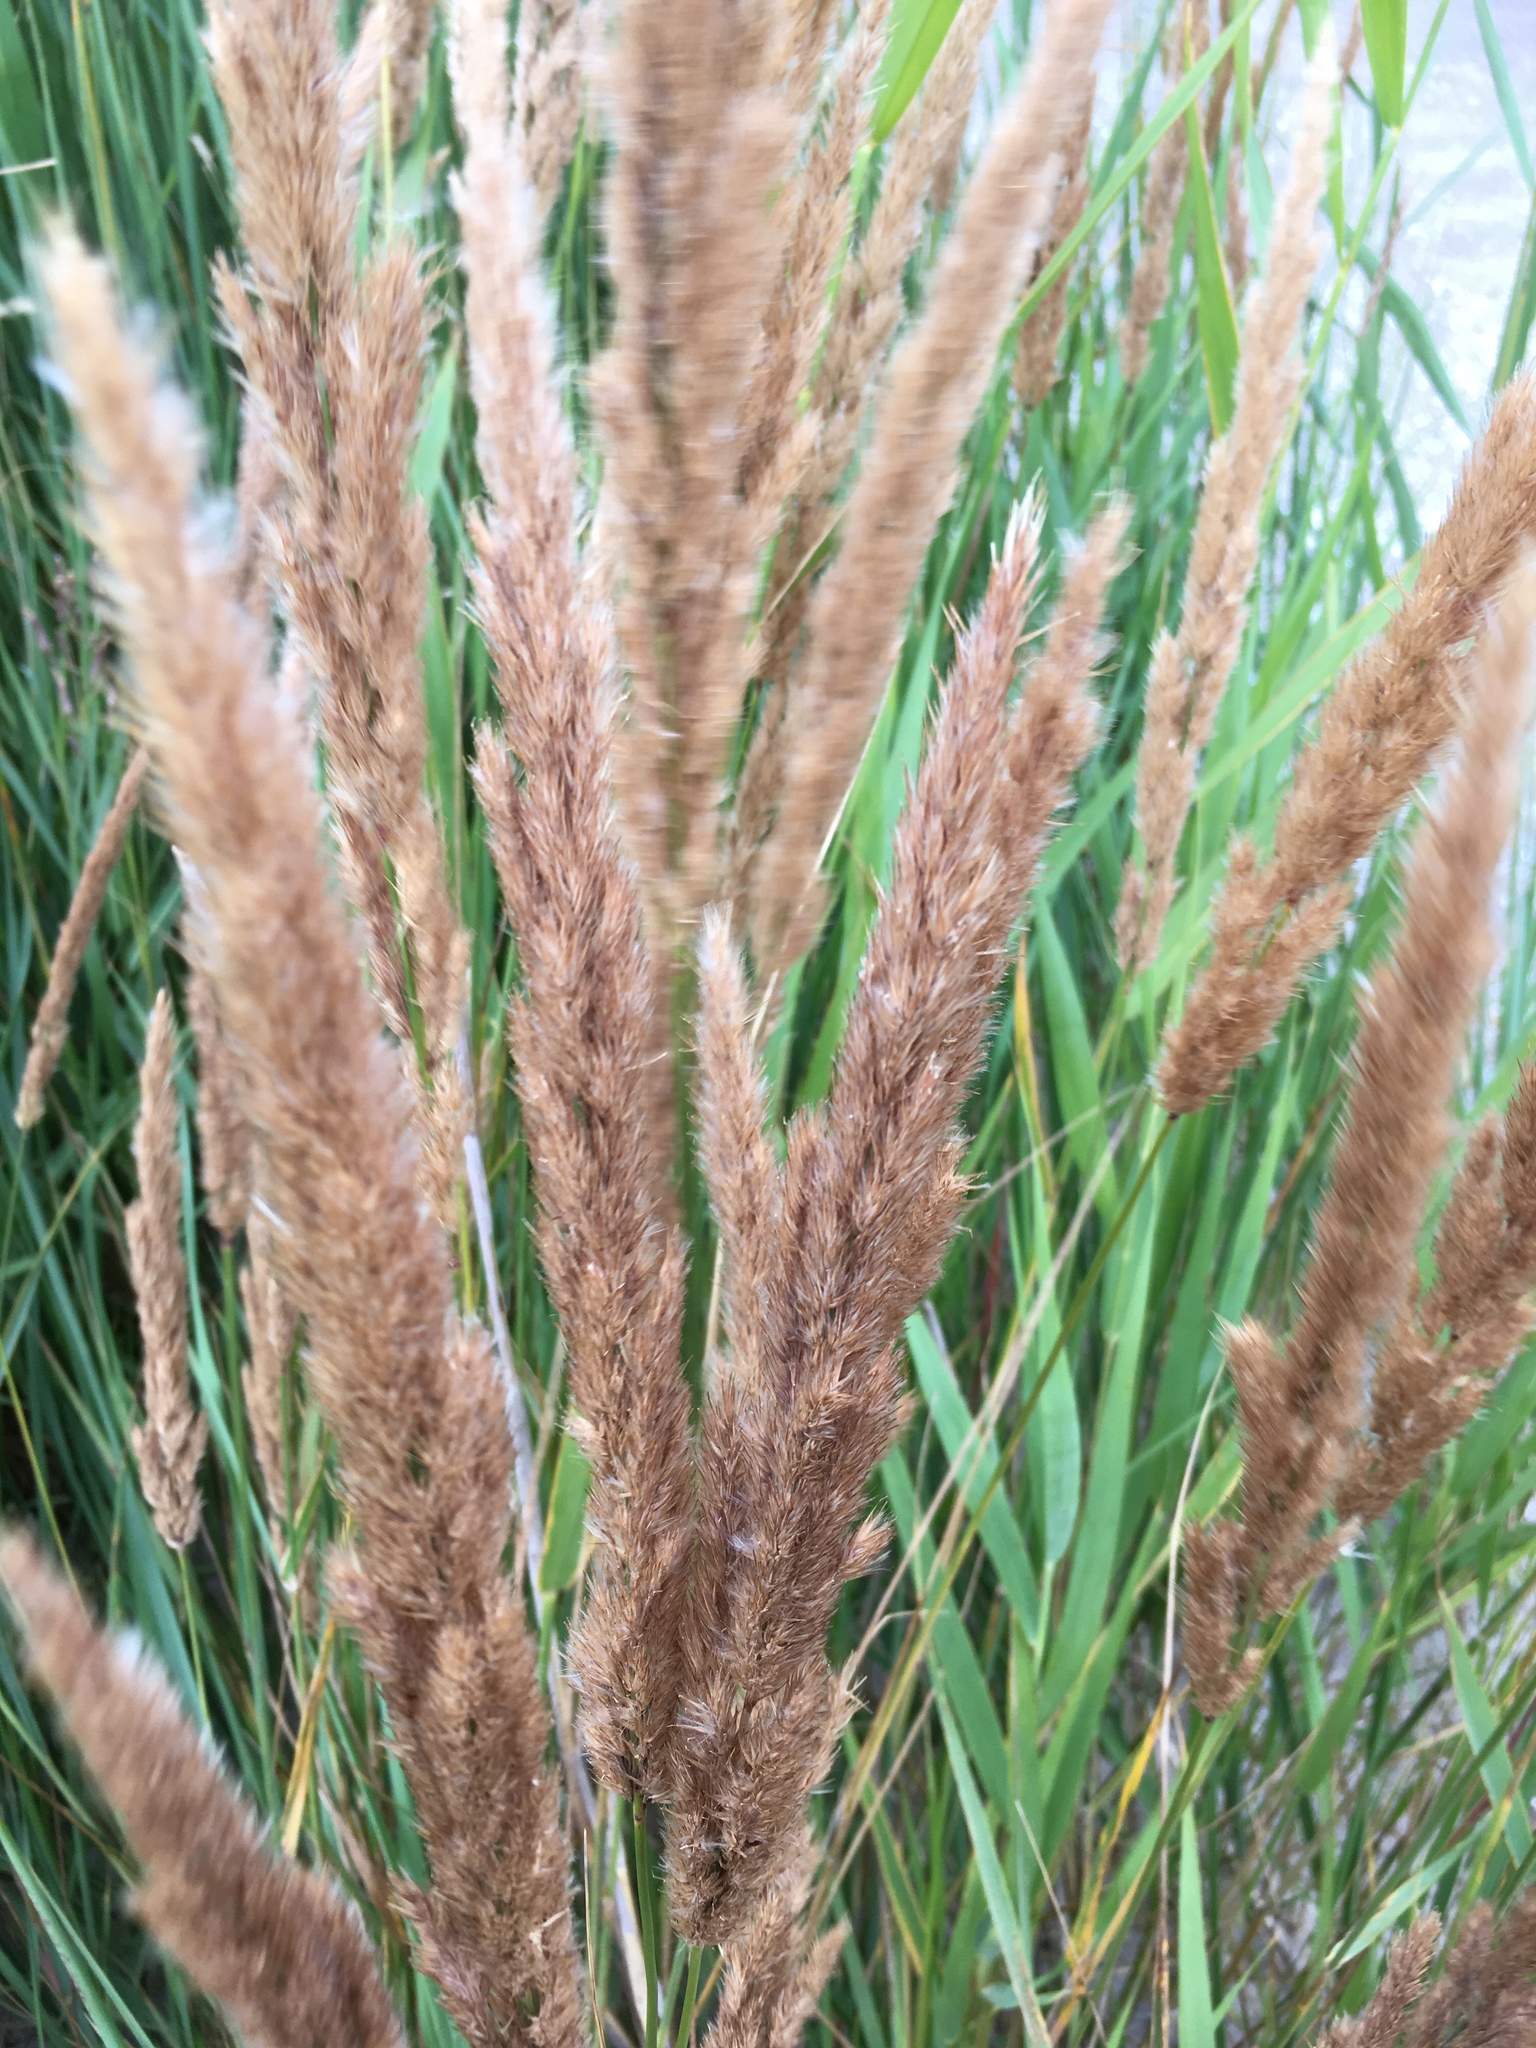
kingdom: Plantae
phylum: Tracheophyta
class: Liliopsida
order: Poales
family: Poaceae
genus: Calamagrostis
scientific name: Calamagrostis epigejos
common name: Wood small-reed
